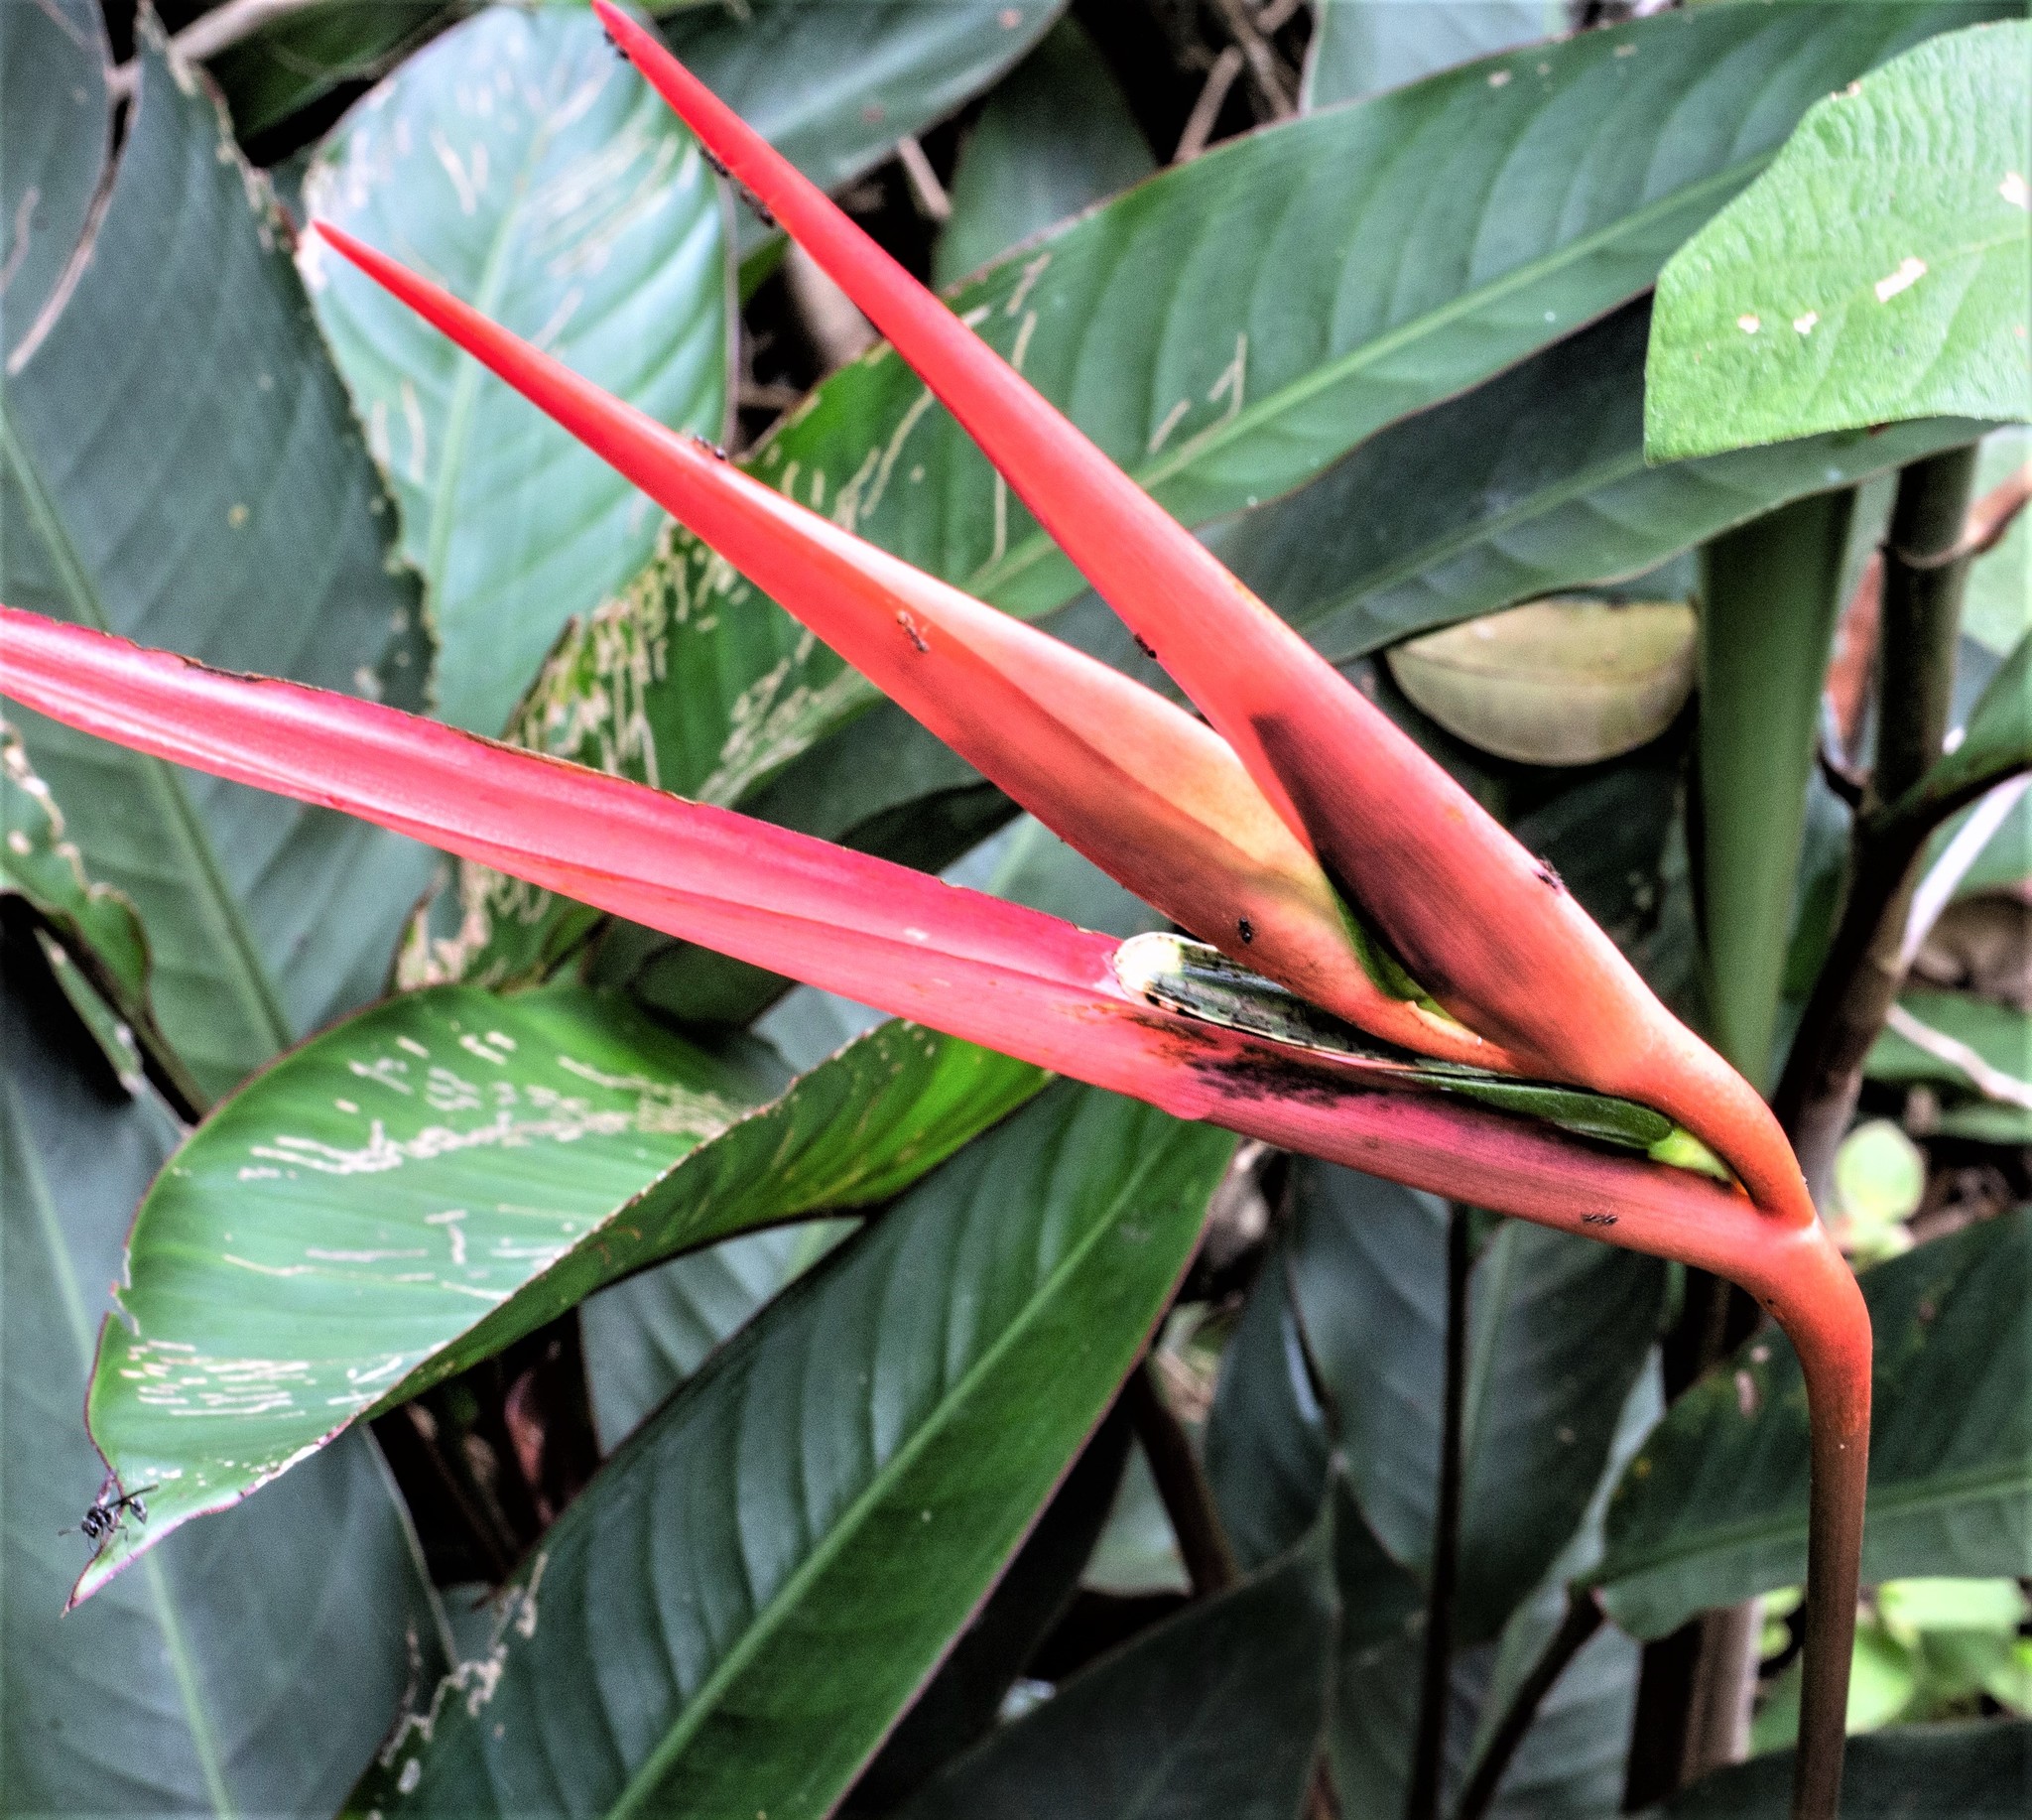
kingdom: Plantae
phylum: Tracheophyta
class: Liliopsida
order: Zingiberales
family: Heliconiaceae
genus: Heliconia
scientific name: Heliconia acuminata
